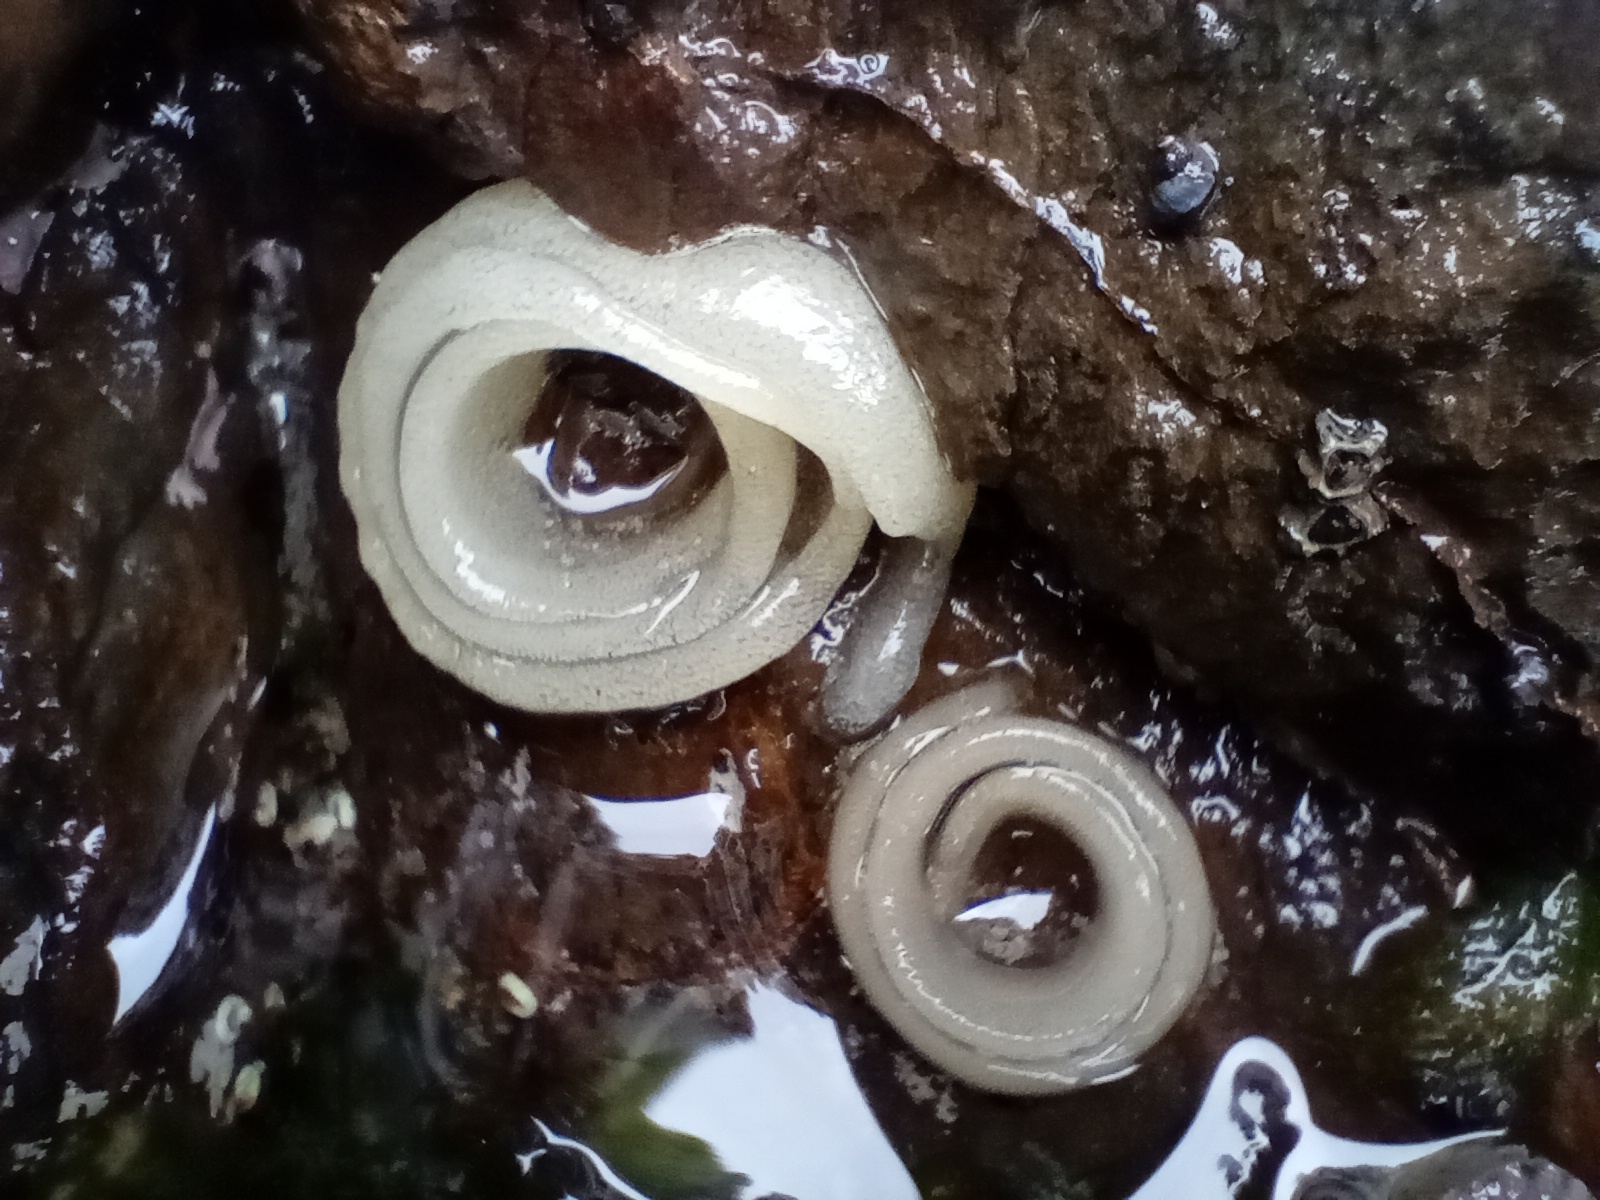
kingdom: Animalia
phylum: Mollusca
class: Gastropoda
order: Siphonariida
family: Siphonariidae
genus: Benhamina
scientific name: Benhamina obliquata
